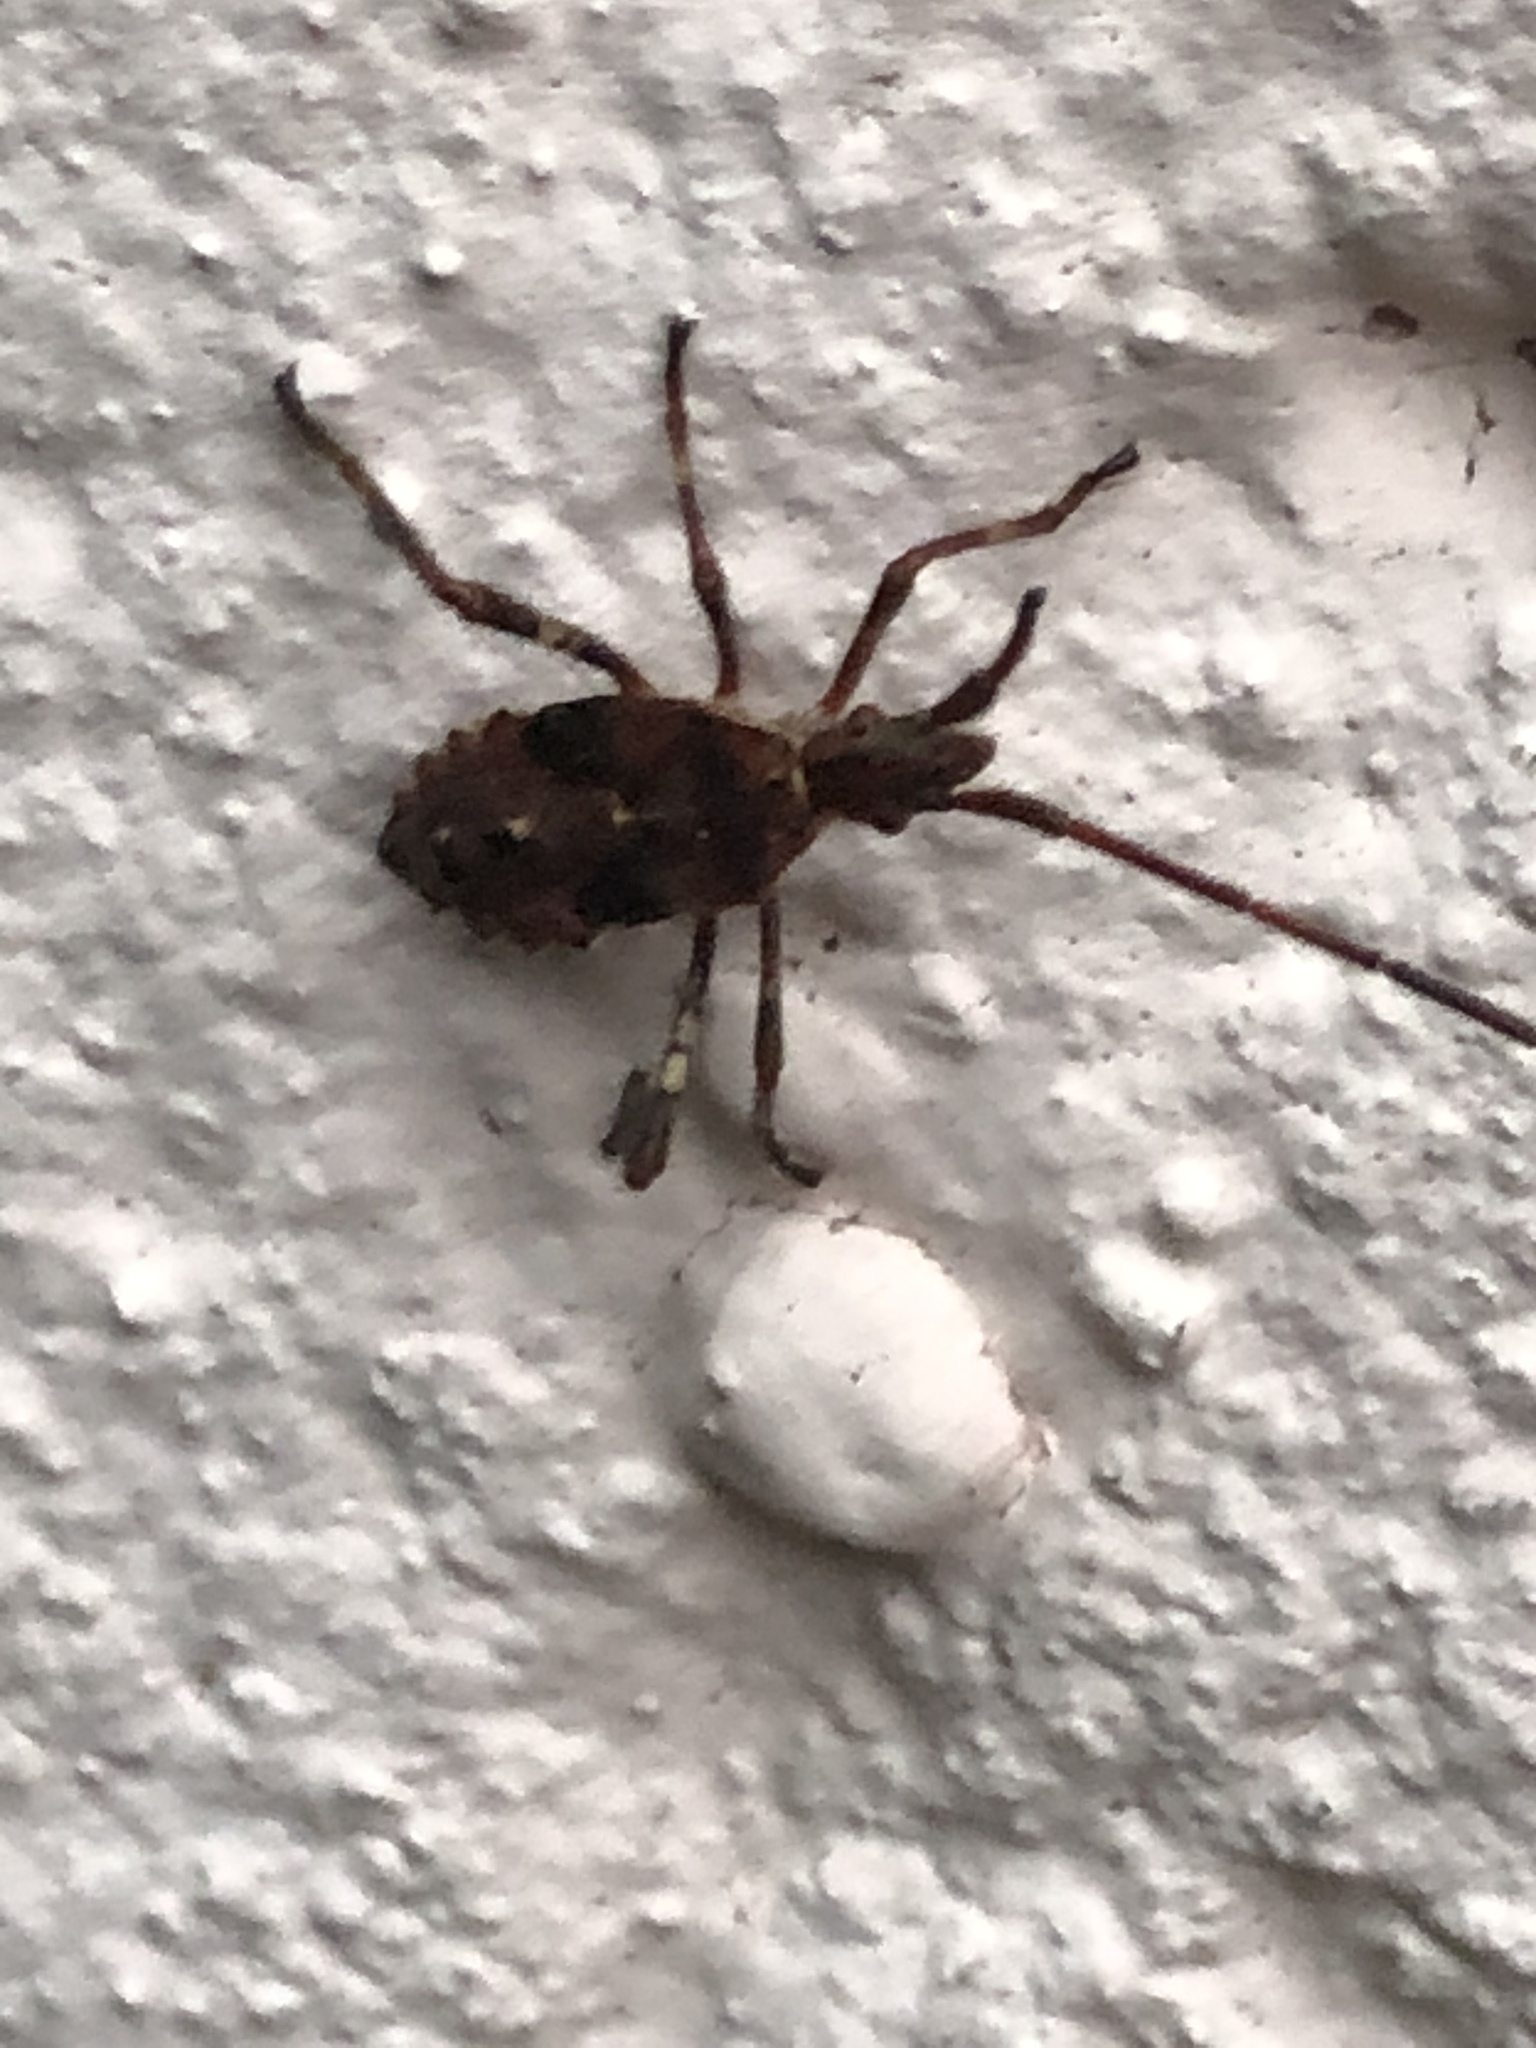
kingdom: Animalia
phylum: Arthropoda
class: Insecta
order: Hemiptera
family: Coreidae
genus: Leptoglossus
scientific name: Leptoglossus occidentalis
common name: Western conifer-seed bug
